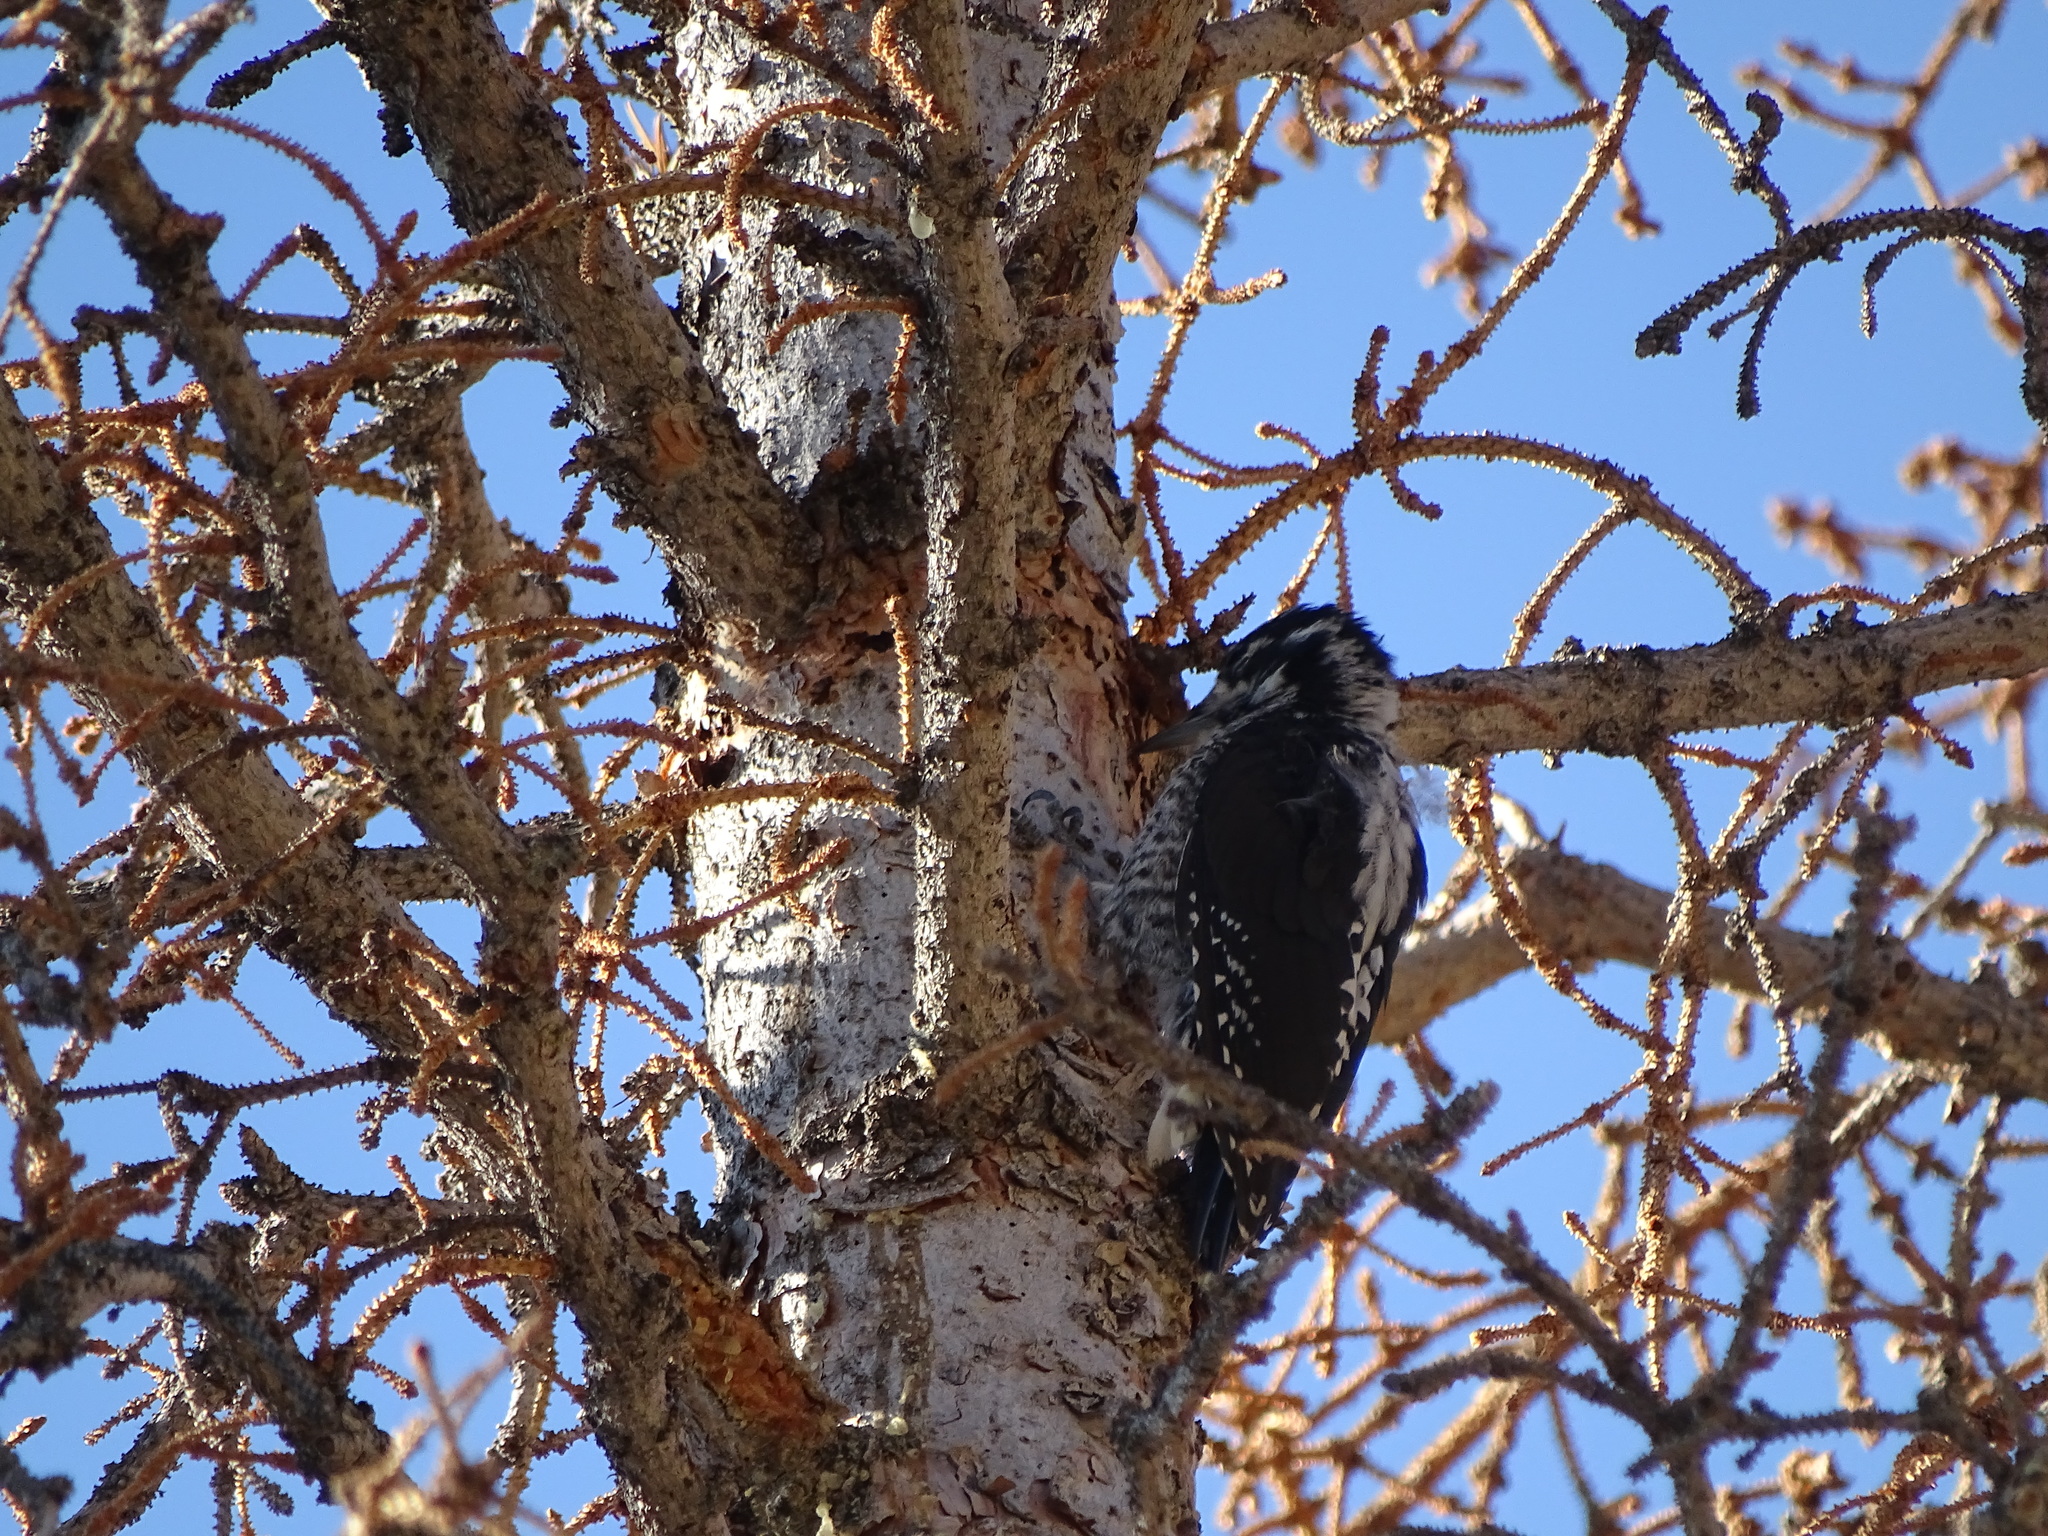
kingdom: Animalia
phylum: Chordata
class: Aves
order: Piciformes
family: Picidae
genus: Picoides
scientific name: Picoides dorsalis
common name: American three-toed woodpecker
